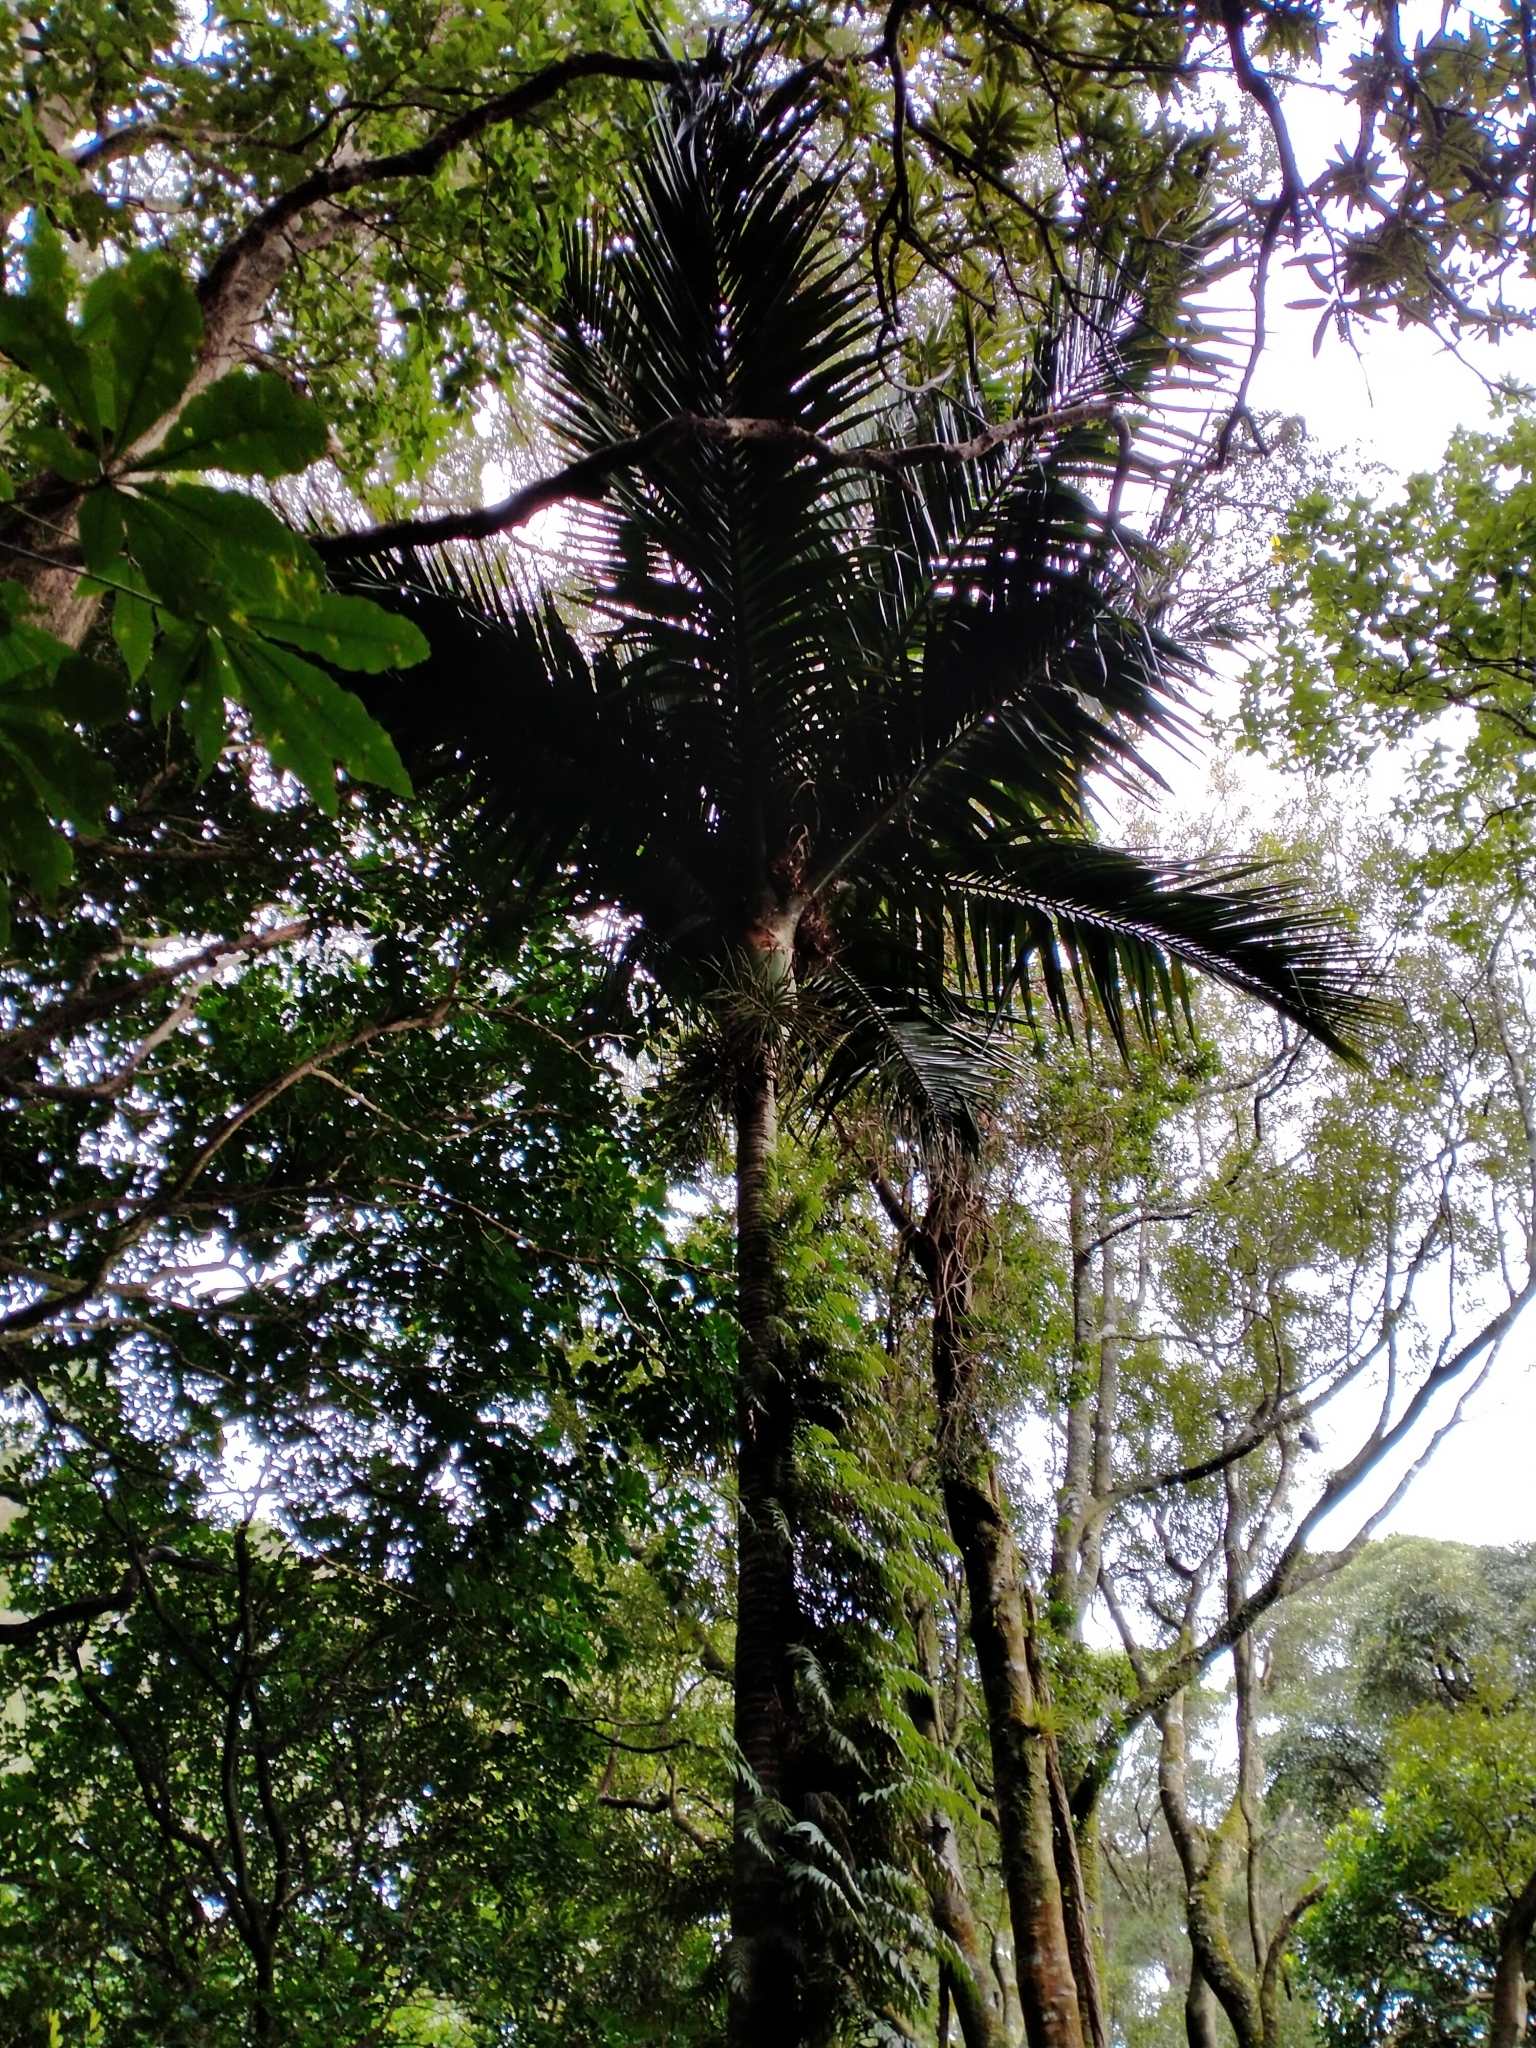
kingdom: Plantae
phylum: Tracheophyta
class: Liliopsida
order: Arecales
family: Arecaceae
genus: Rhopalostylis
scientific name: Rhopalostylis sapida
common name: Feather-duster palm
